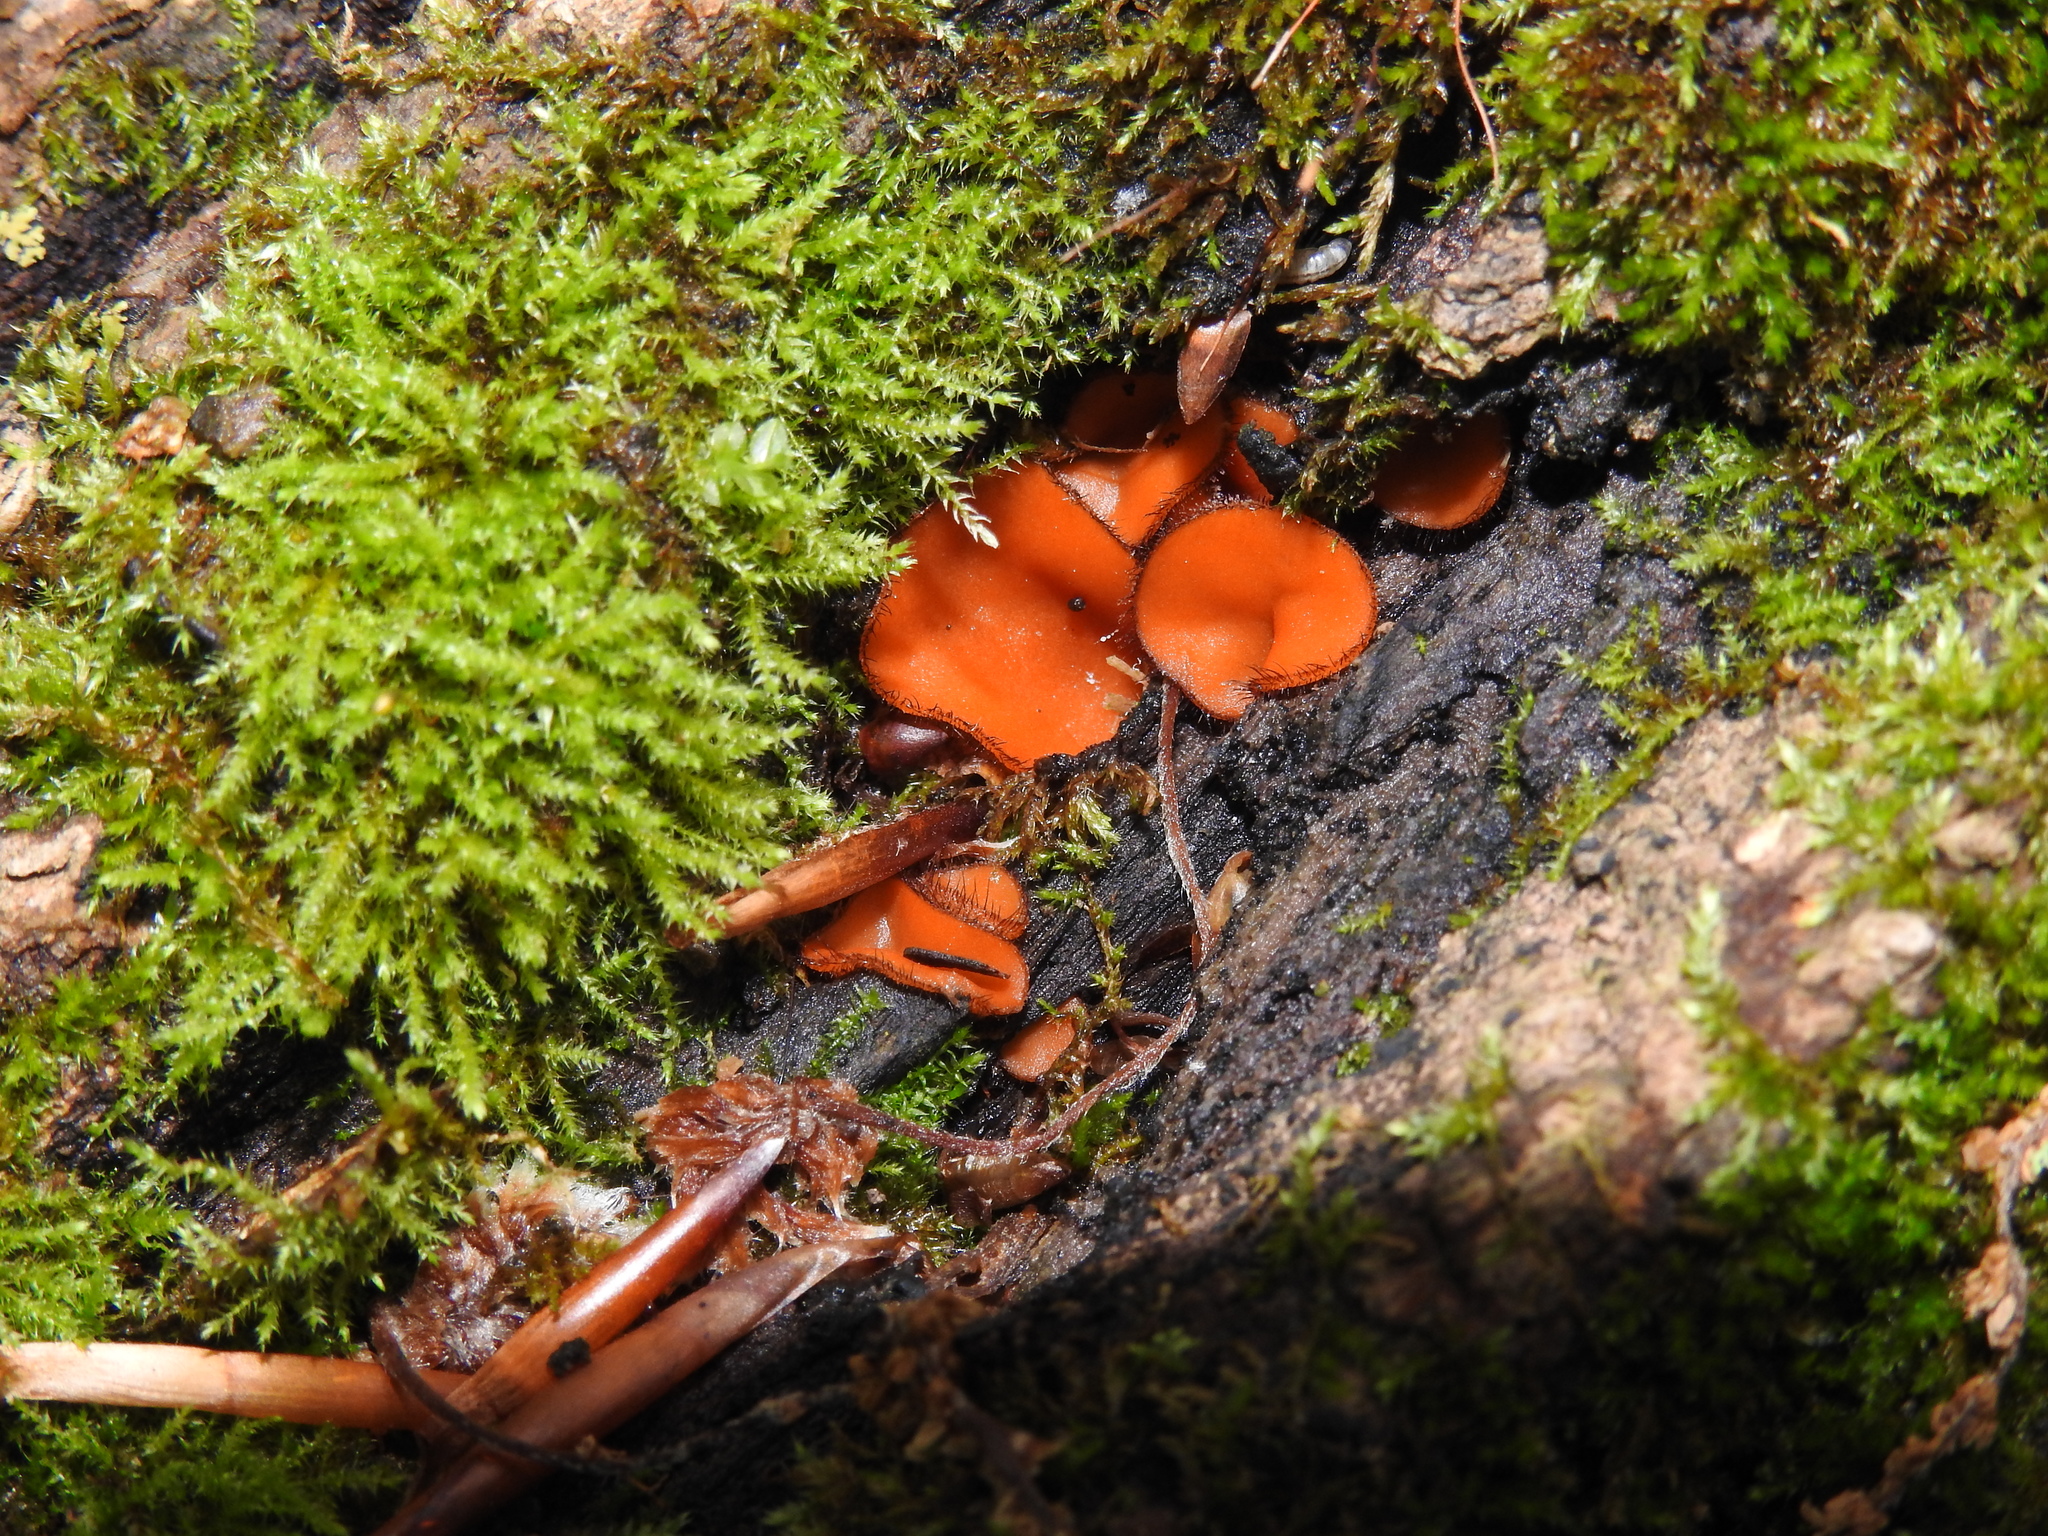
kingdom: Fungi
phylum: Ascomycota
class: Pezizomycetes
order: Pezizales
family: Pyronemataceae
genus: Scutellinia
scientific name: Scutellinia
